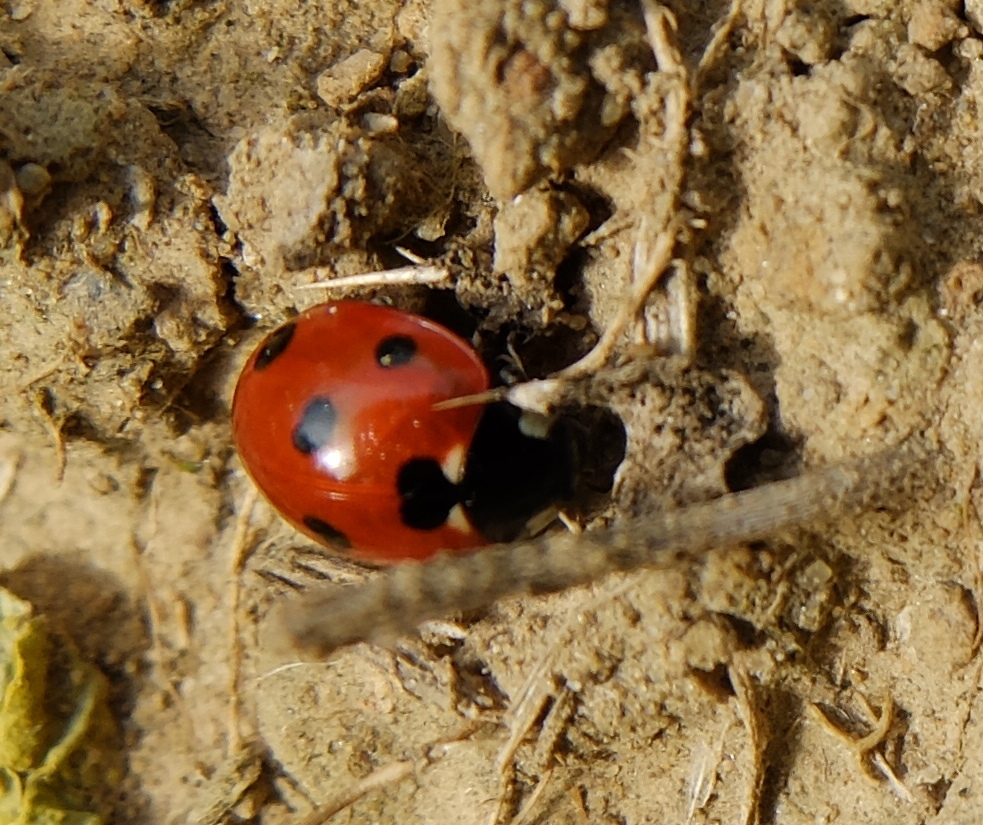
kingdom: Animalia
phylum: Arthropoda
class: Insecta
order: Coleoptera
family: Coccinellidae
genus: Coccinella
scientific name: Coccinella septempunctata
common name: Sevenspotted lady beetle
